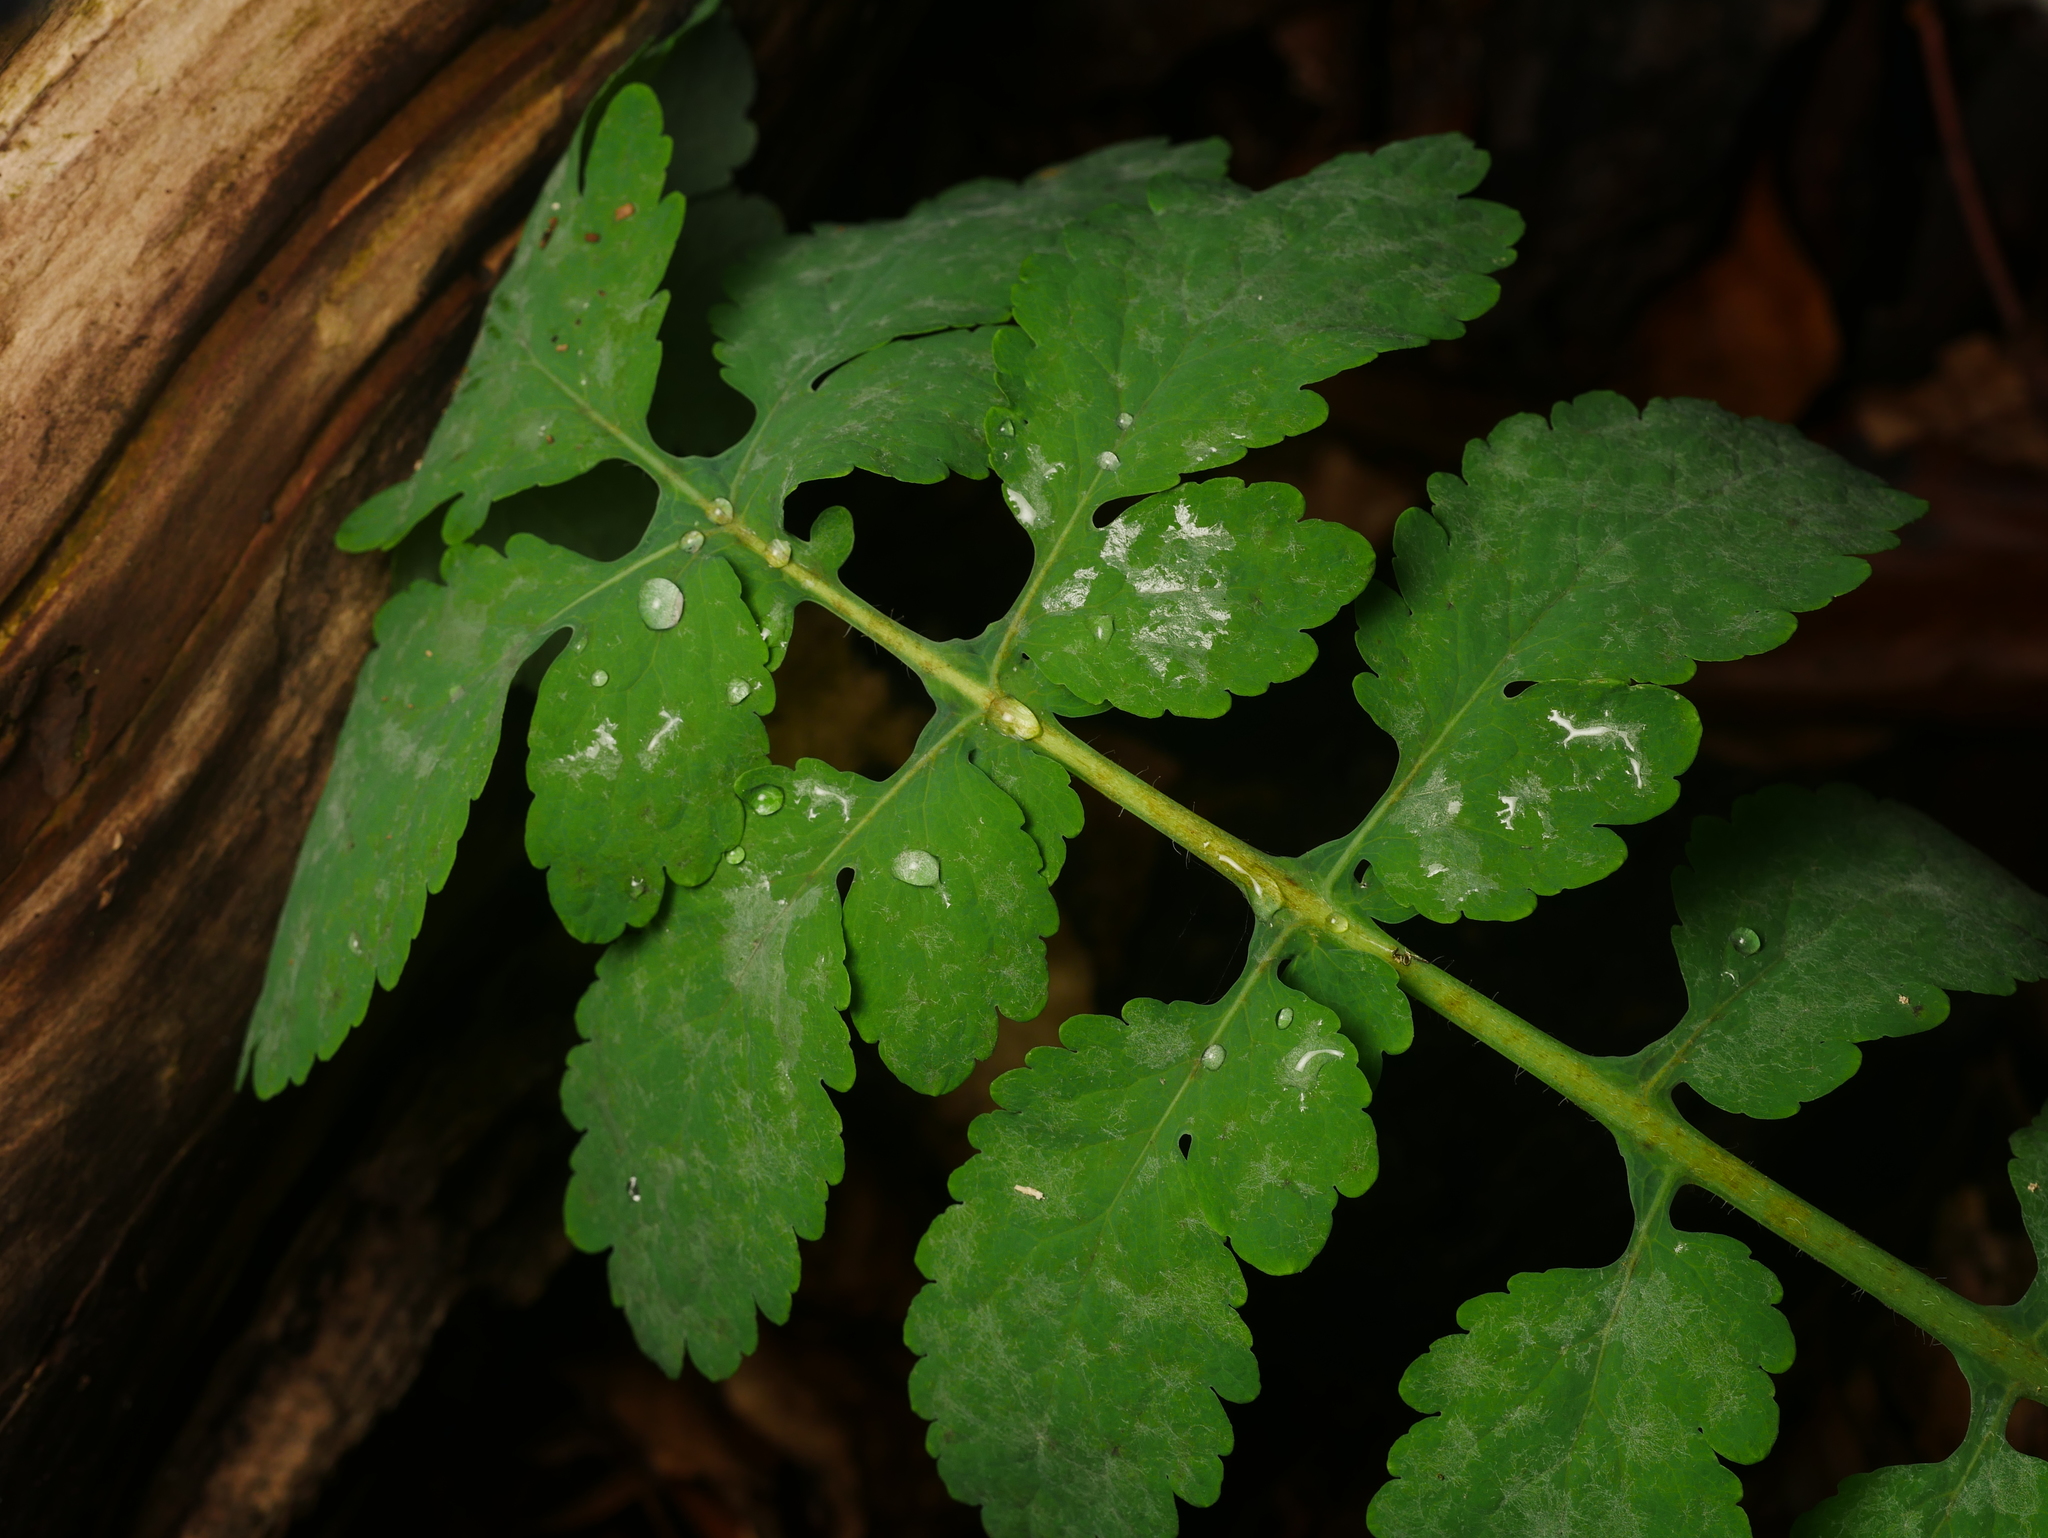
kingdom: Plantae
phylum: Tracheophyta
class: Magnoliopsida
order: Ranunculales
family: Papaveraceae
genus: Chelidonium
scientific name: Chelidonium majus
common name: Greater celandine
